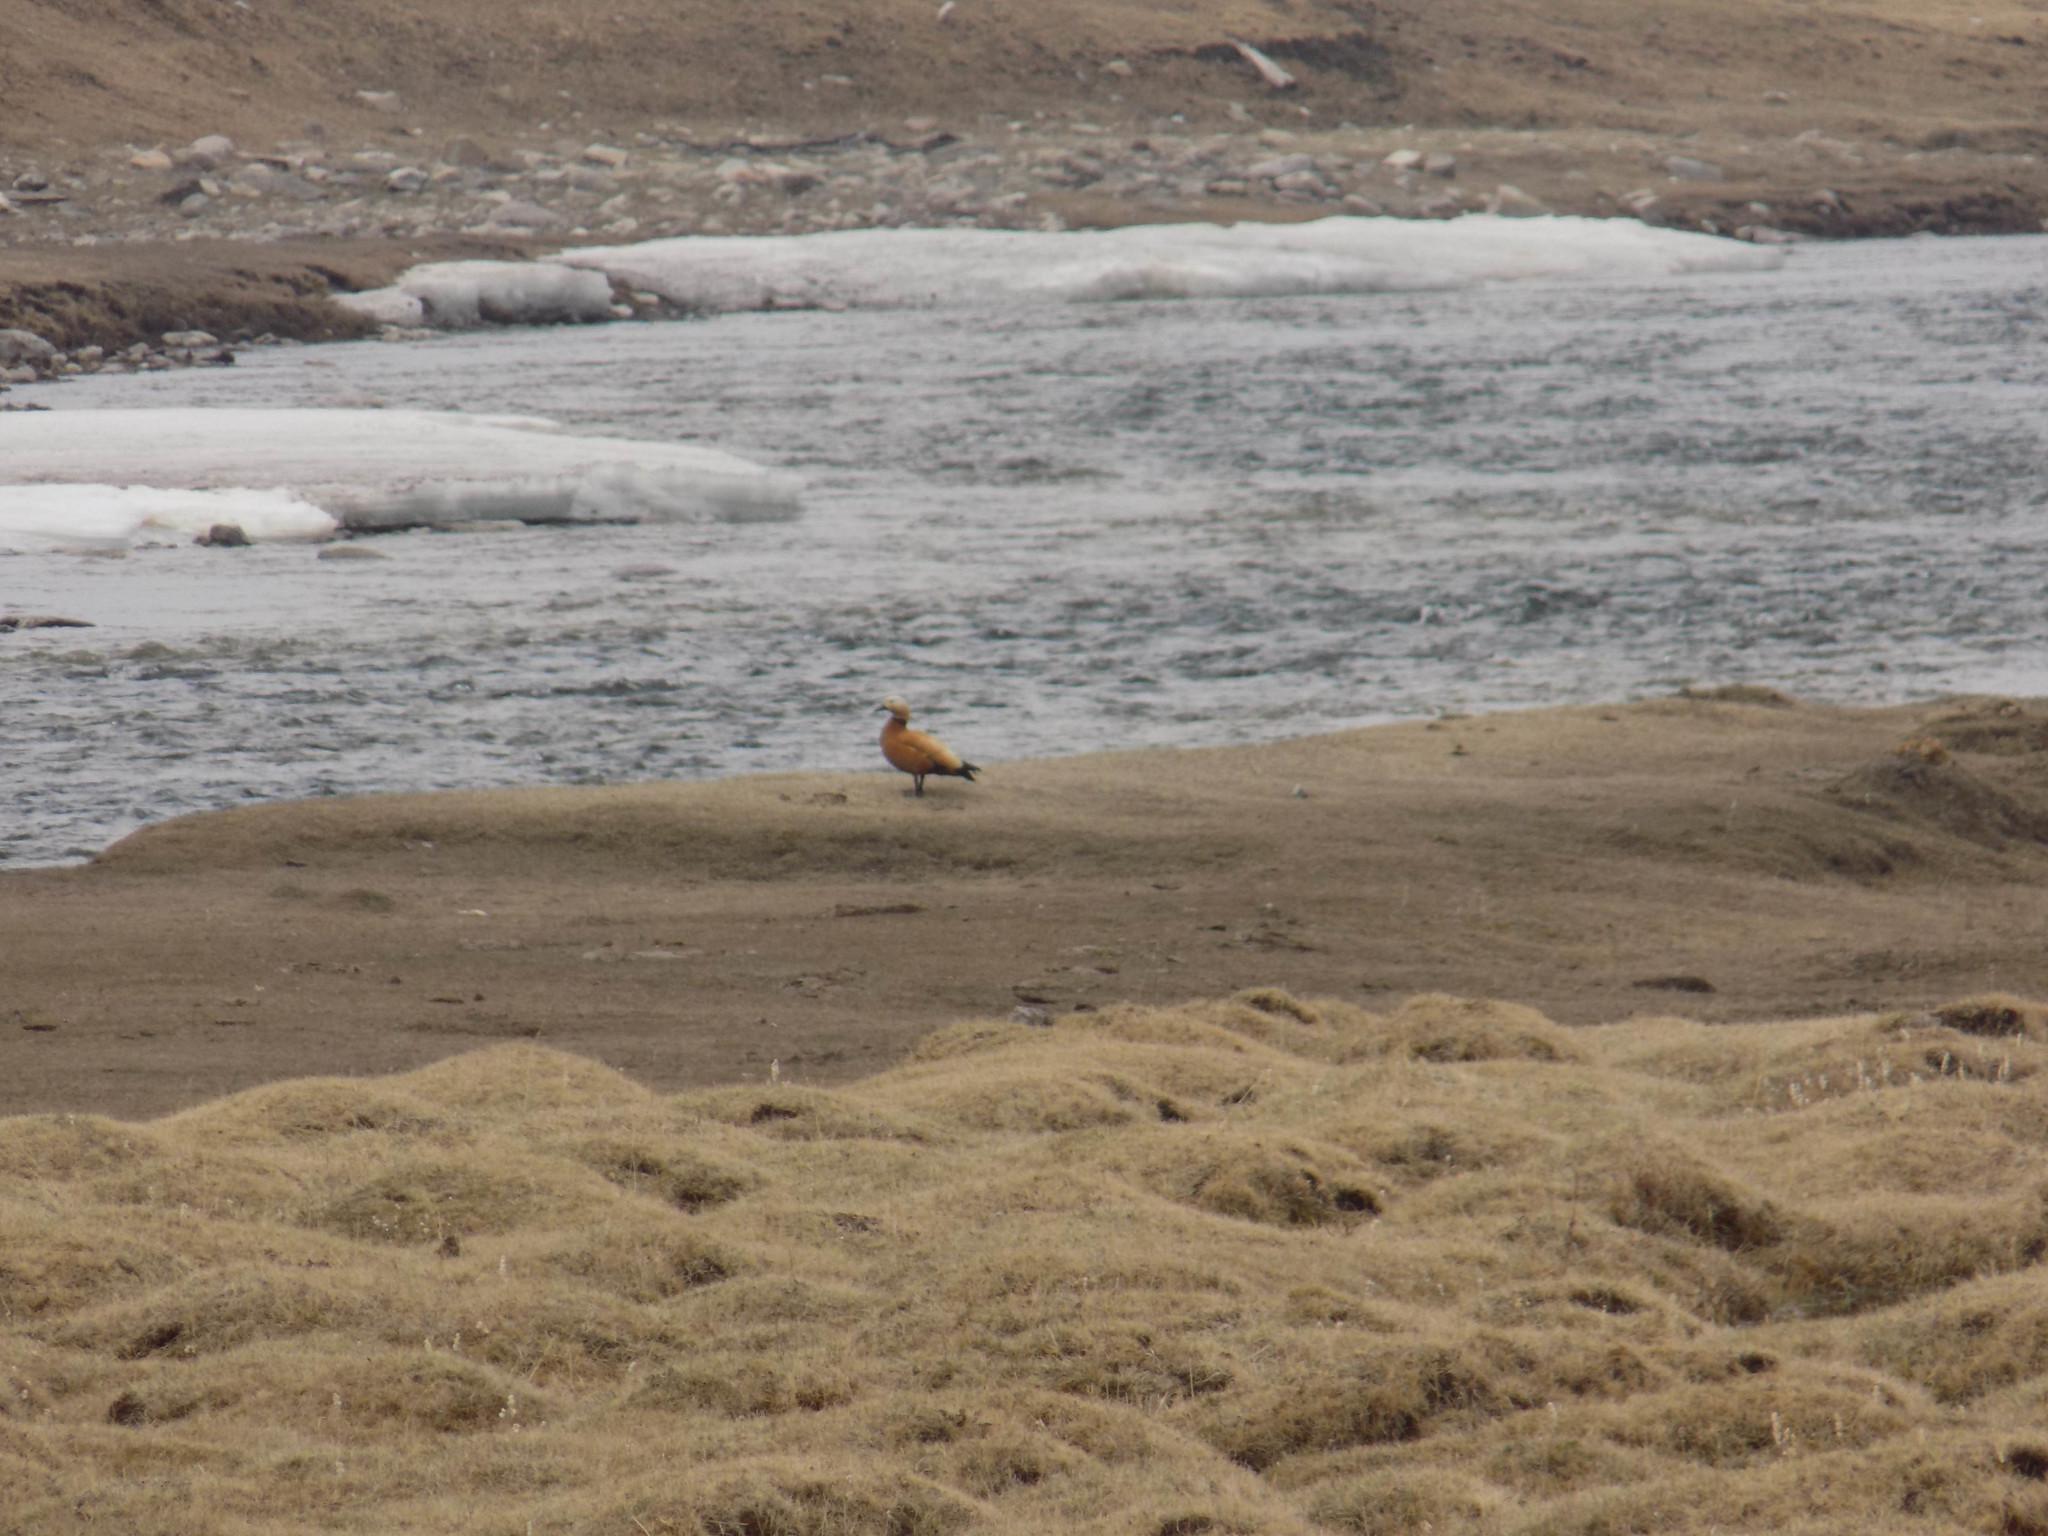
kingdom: Animalia
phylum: Chordata
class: Aves
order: Anseriformes
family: Anatidae
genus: Tadorna
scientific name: Tadorna ferruginea
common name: Ruddy shelduck
